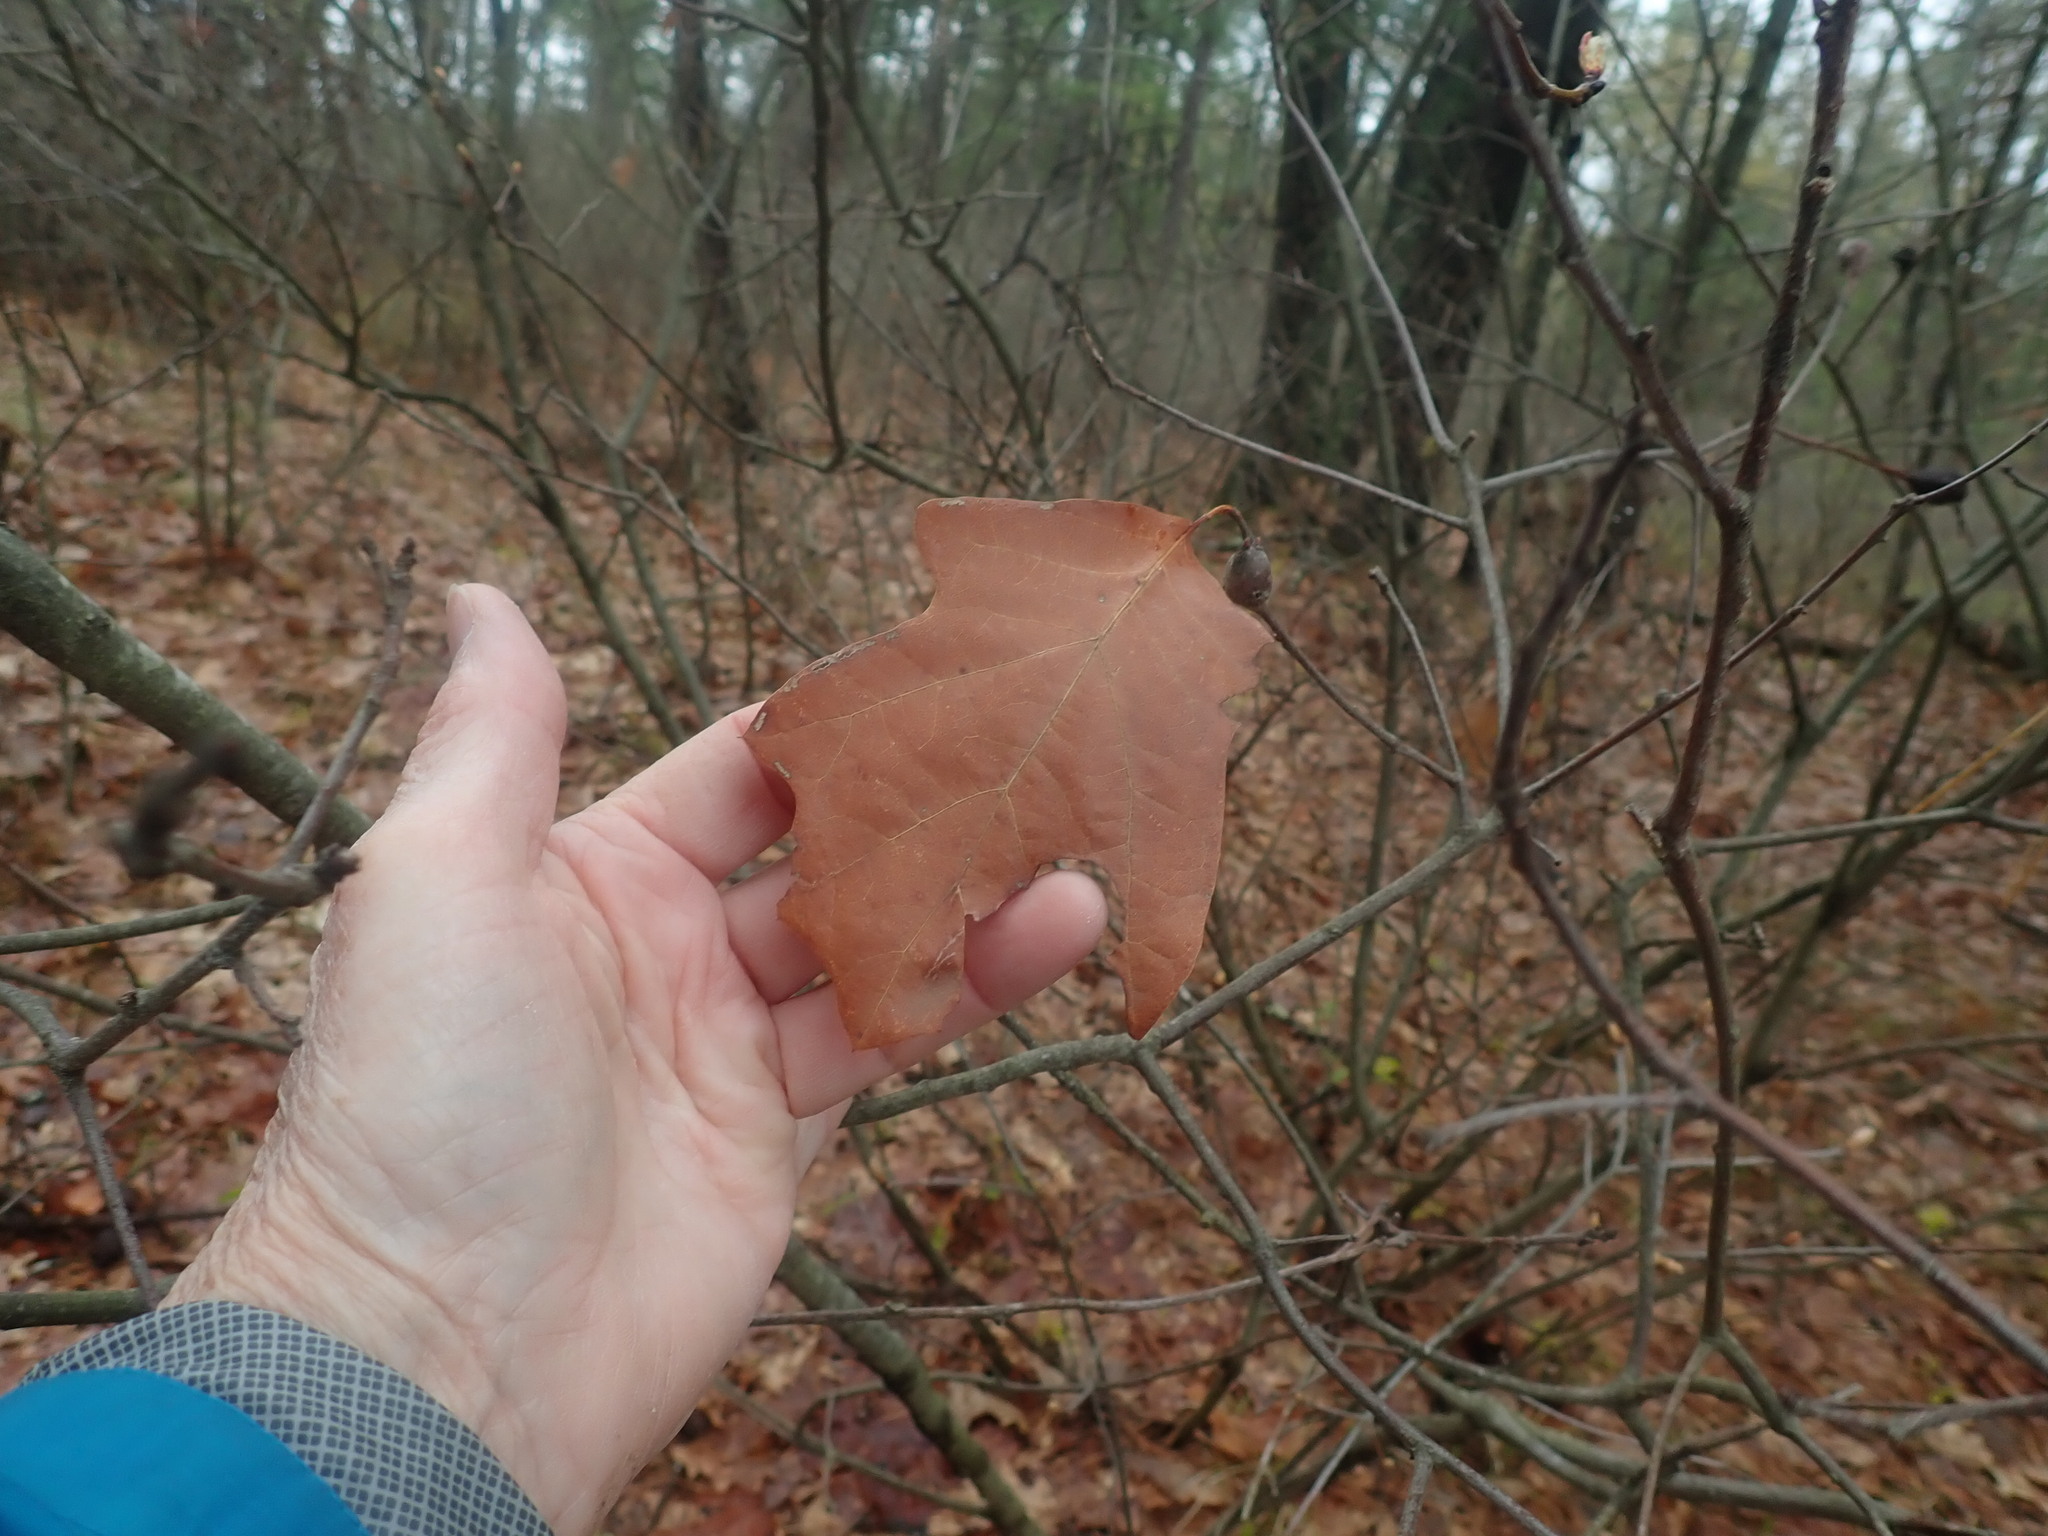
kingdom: Plantae
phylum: Tracheophyta
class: Magnoliopsida
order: Fagales
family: Fagaceae
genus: Quercus
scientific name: Quercus ilicifolia
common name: Bear oak
